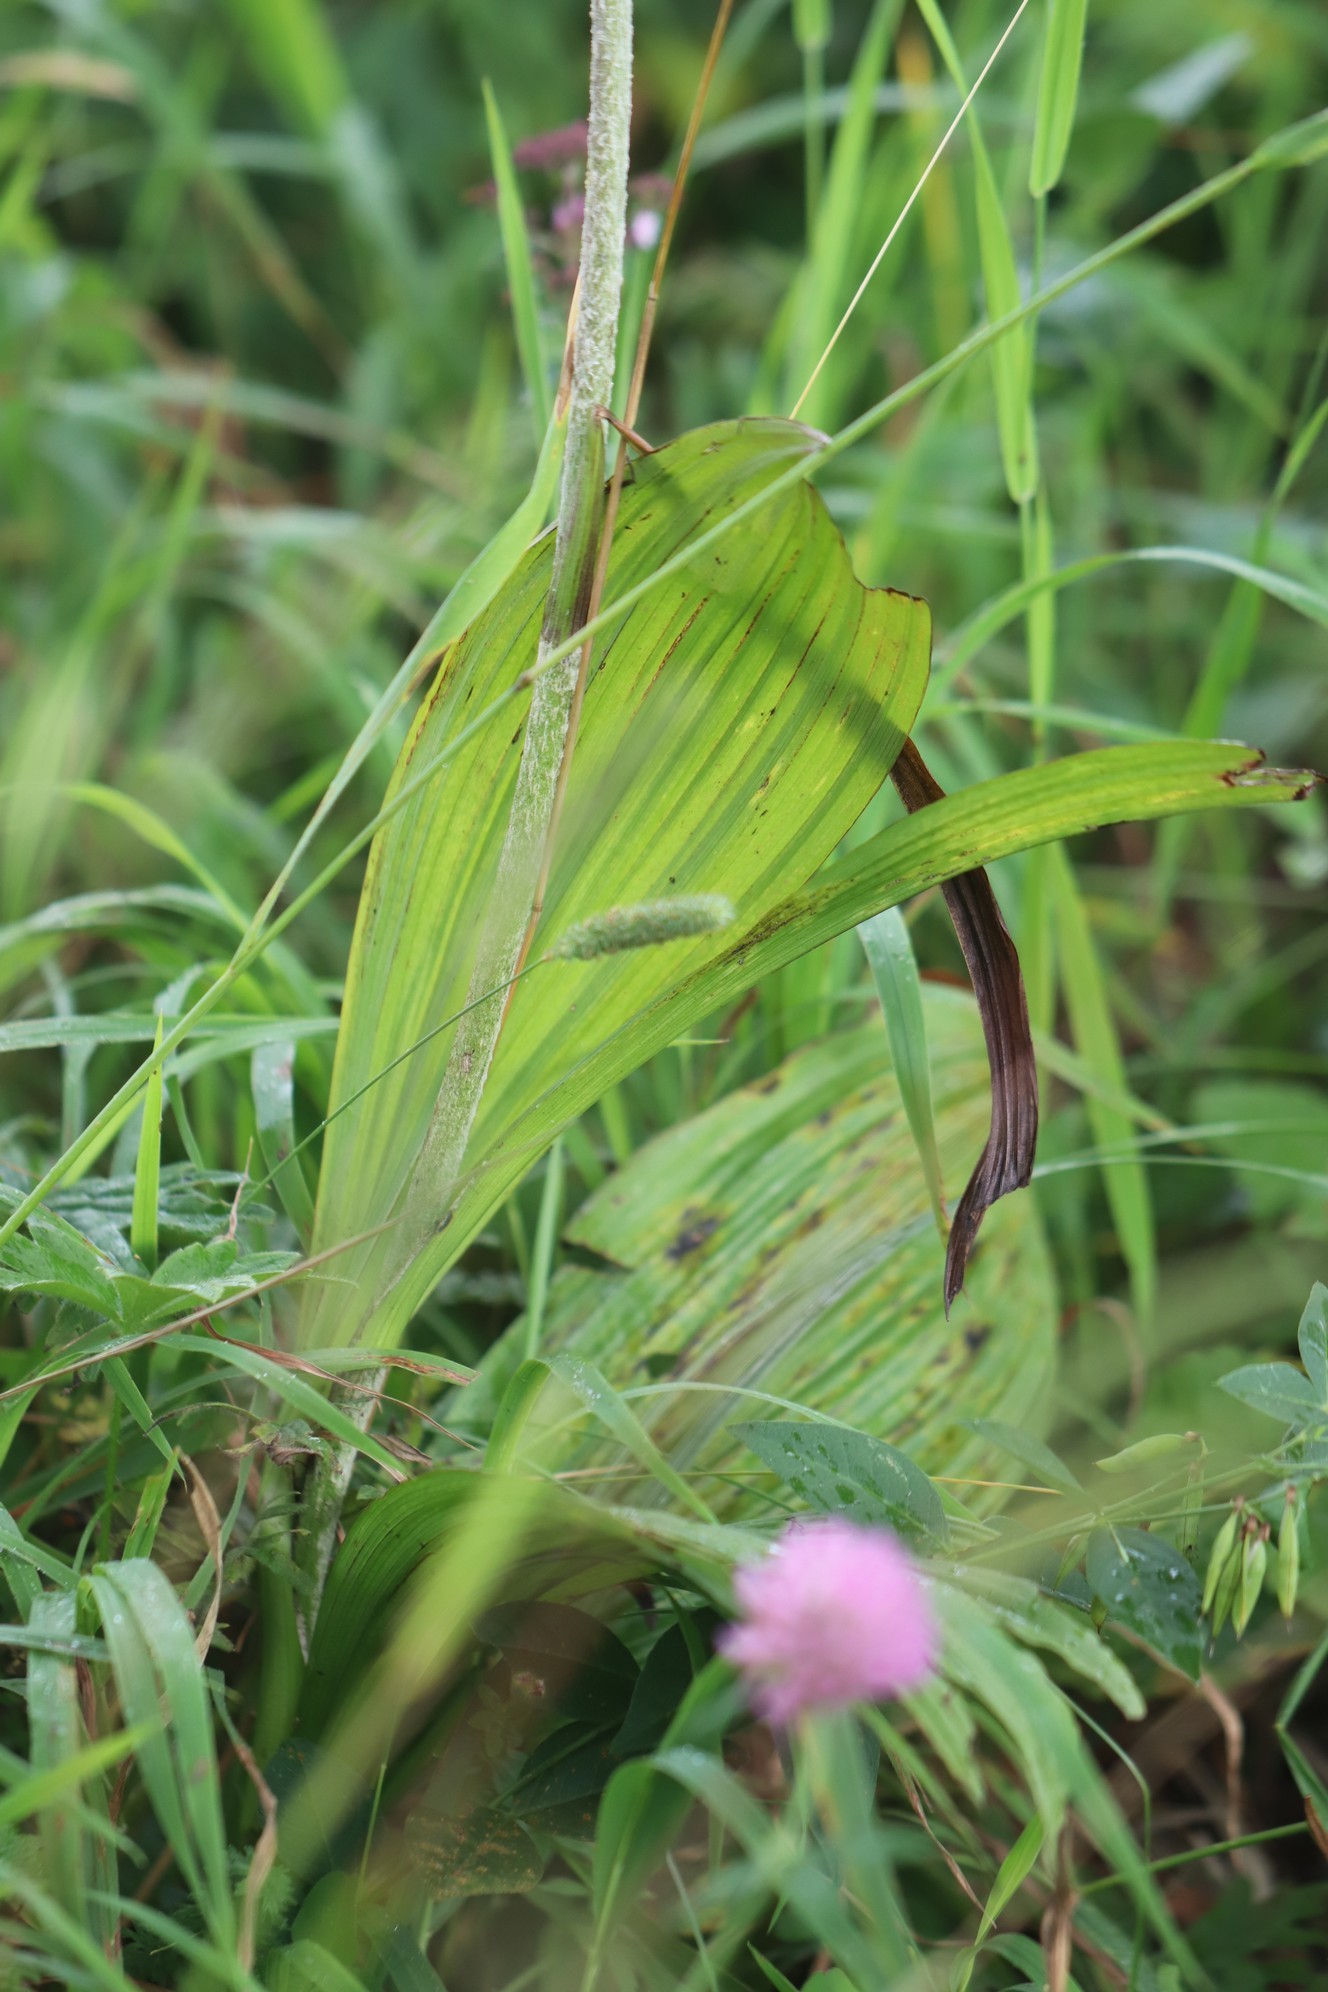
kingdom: Plantae
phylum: Tracheophyta
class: Liliopsida
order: Liliales
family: Melanthiaceae
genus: Veratrum
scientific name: Veratrum nigrum
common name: Black veratrum
